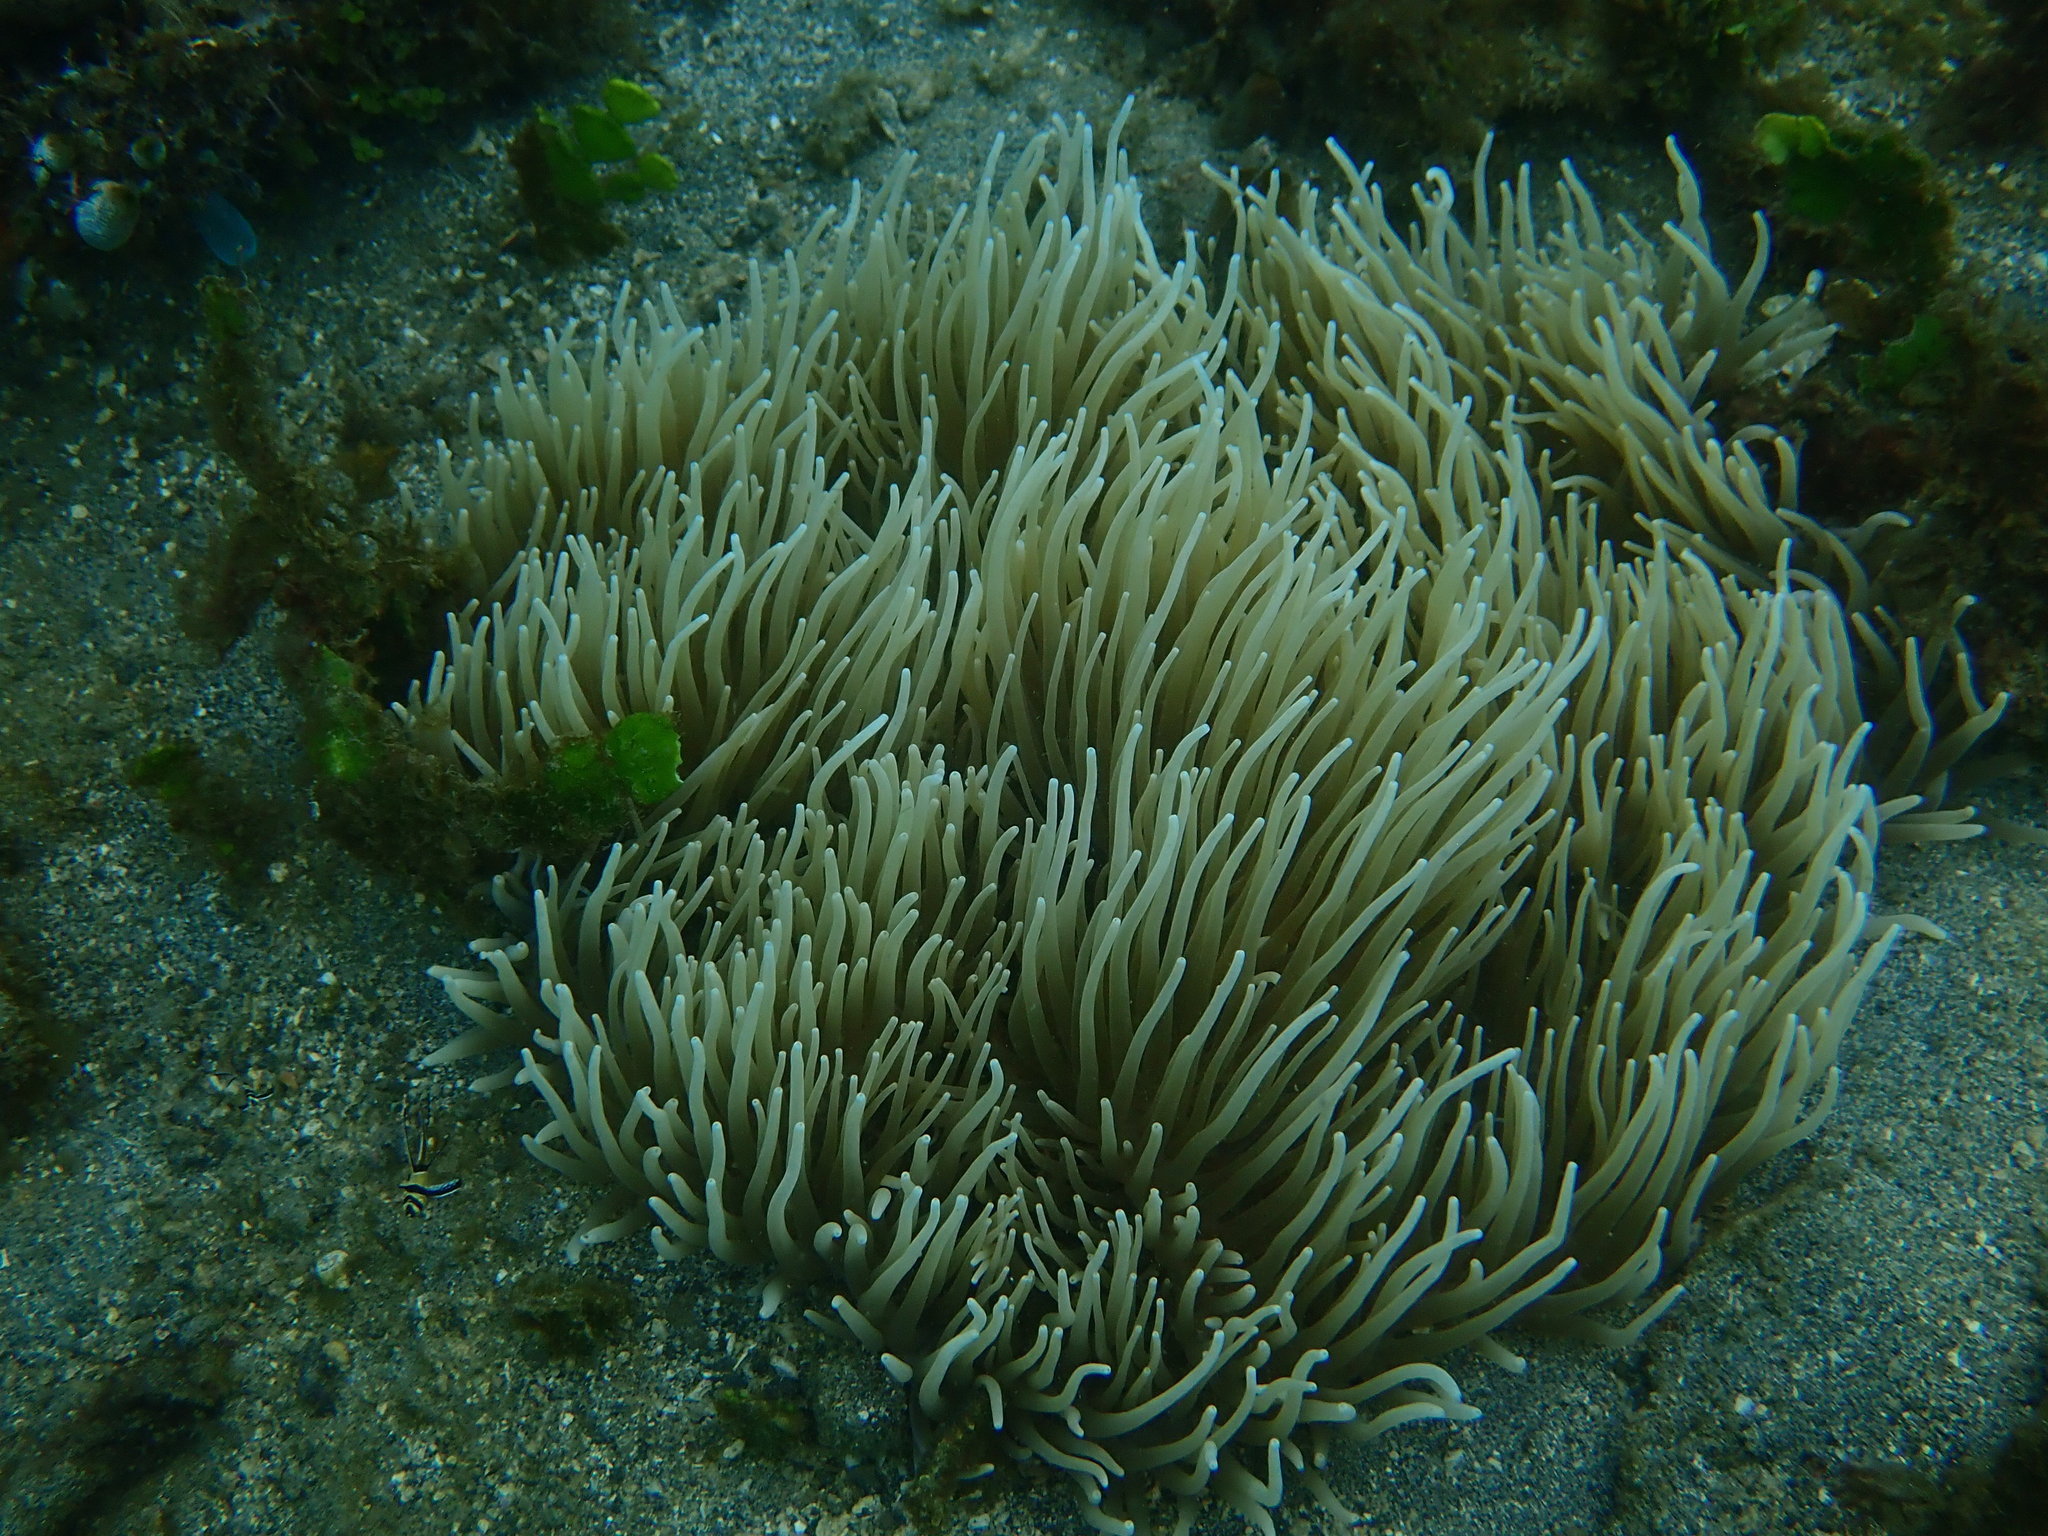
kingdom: Animalia
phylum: Cnidaria
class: Anthozoa
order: Actiniaria
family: Stichodactylidae
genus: Radianthus
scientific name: Radianthus crispa
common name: Leather anemone
